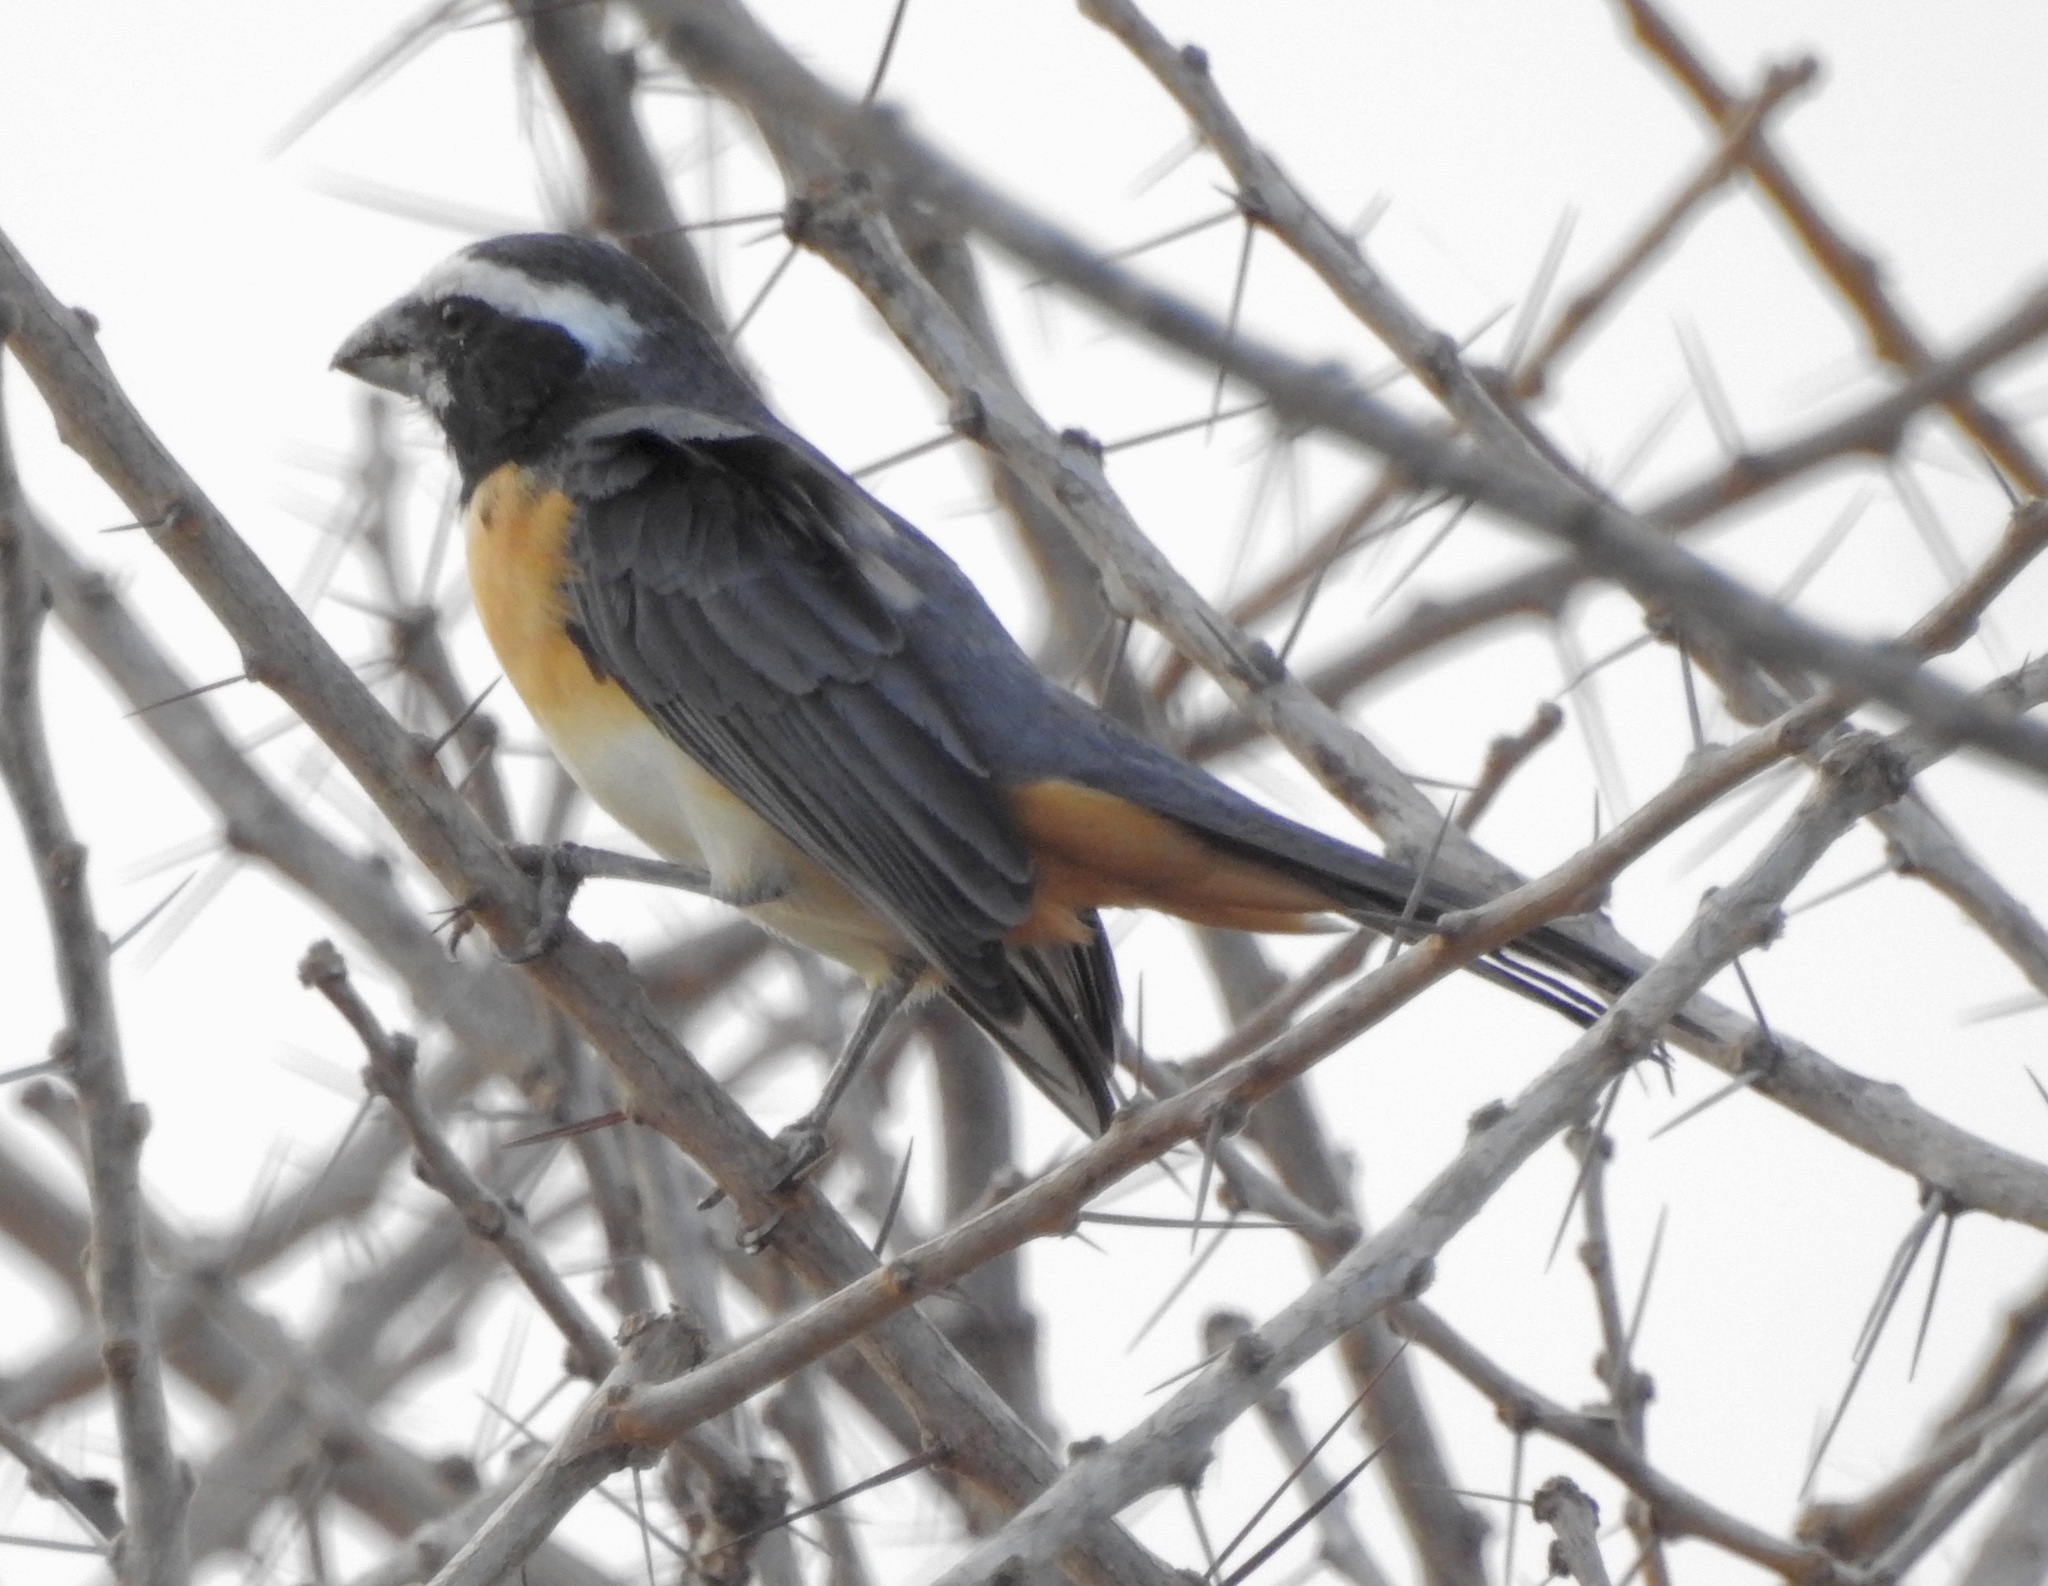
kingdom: Animalia
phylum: Chordata
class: Aves
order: Passeriformes
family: Thraupidae
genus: Saltator
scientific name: Saltator orenocensis
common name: Orinoco saltator
